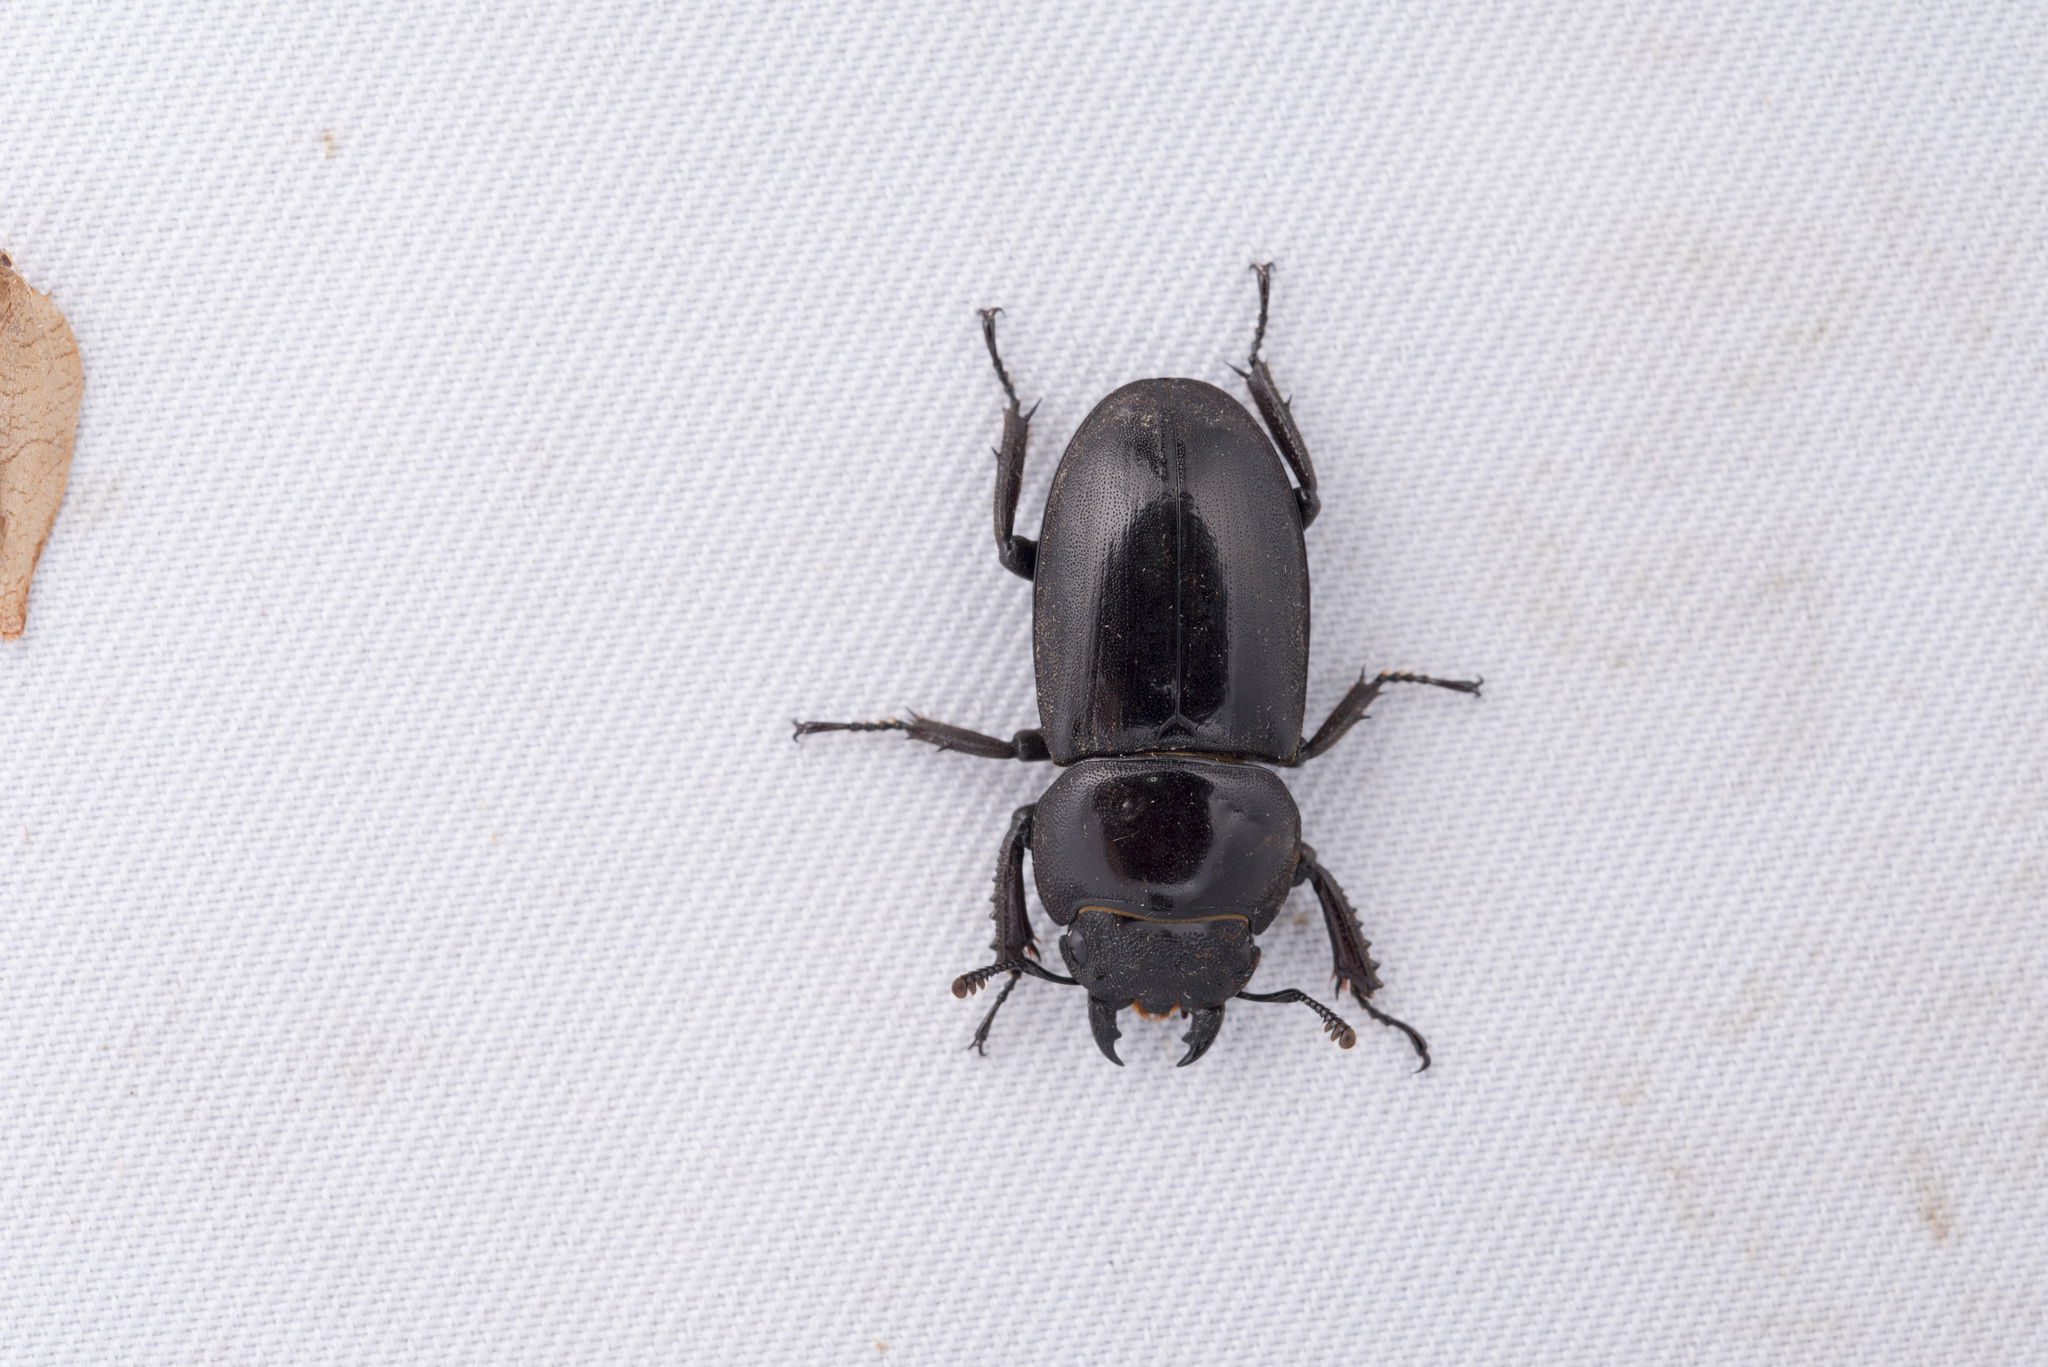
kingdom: Animalia
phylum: Arthropoda
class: Insecta
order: Coleoptera
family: Lucanidae
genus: Serrognathus
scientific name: Serrognathus titanus
